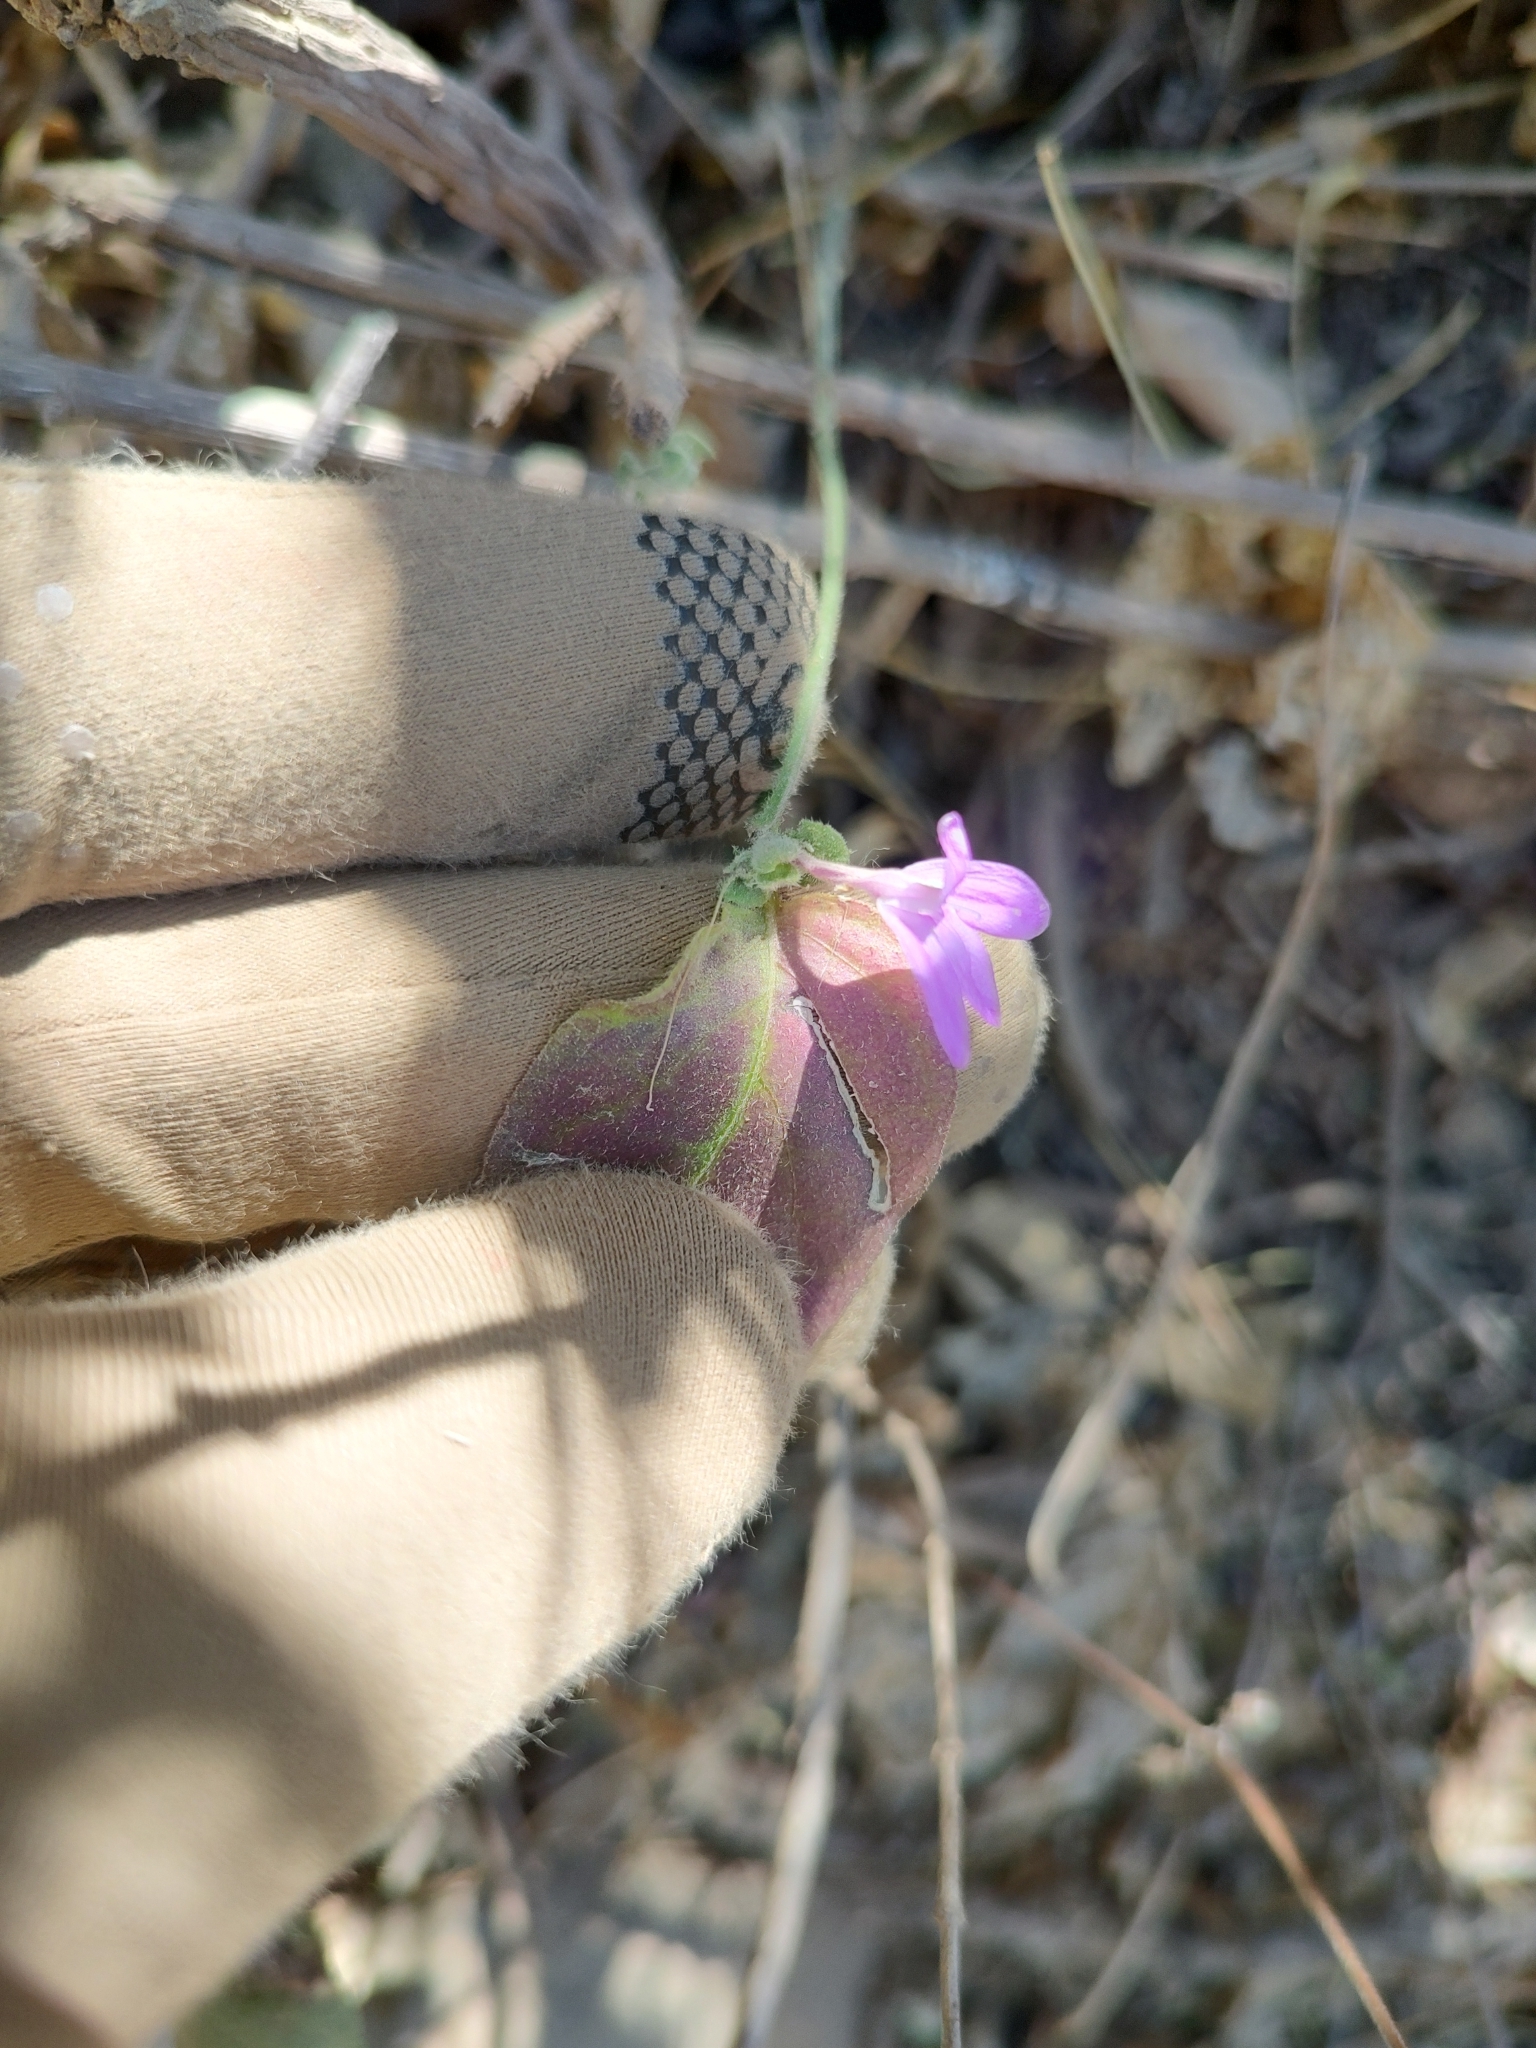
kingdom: Plantae
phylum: Tracheophyta
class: Magnoliopsida
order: Lamiales
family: Acanthaceae
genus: Dianthera
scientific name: Dianthera incerta
